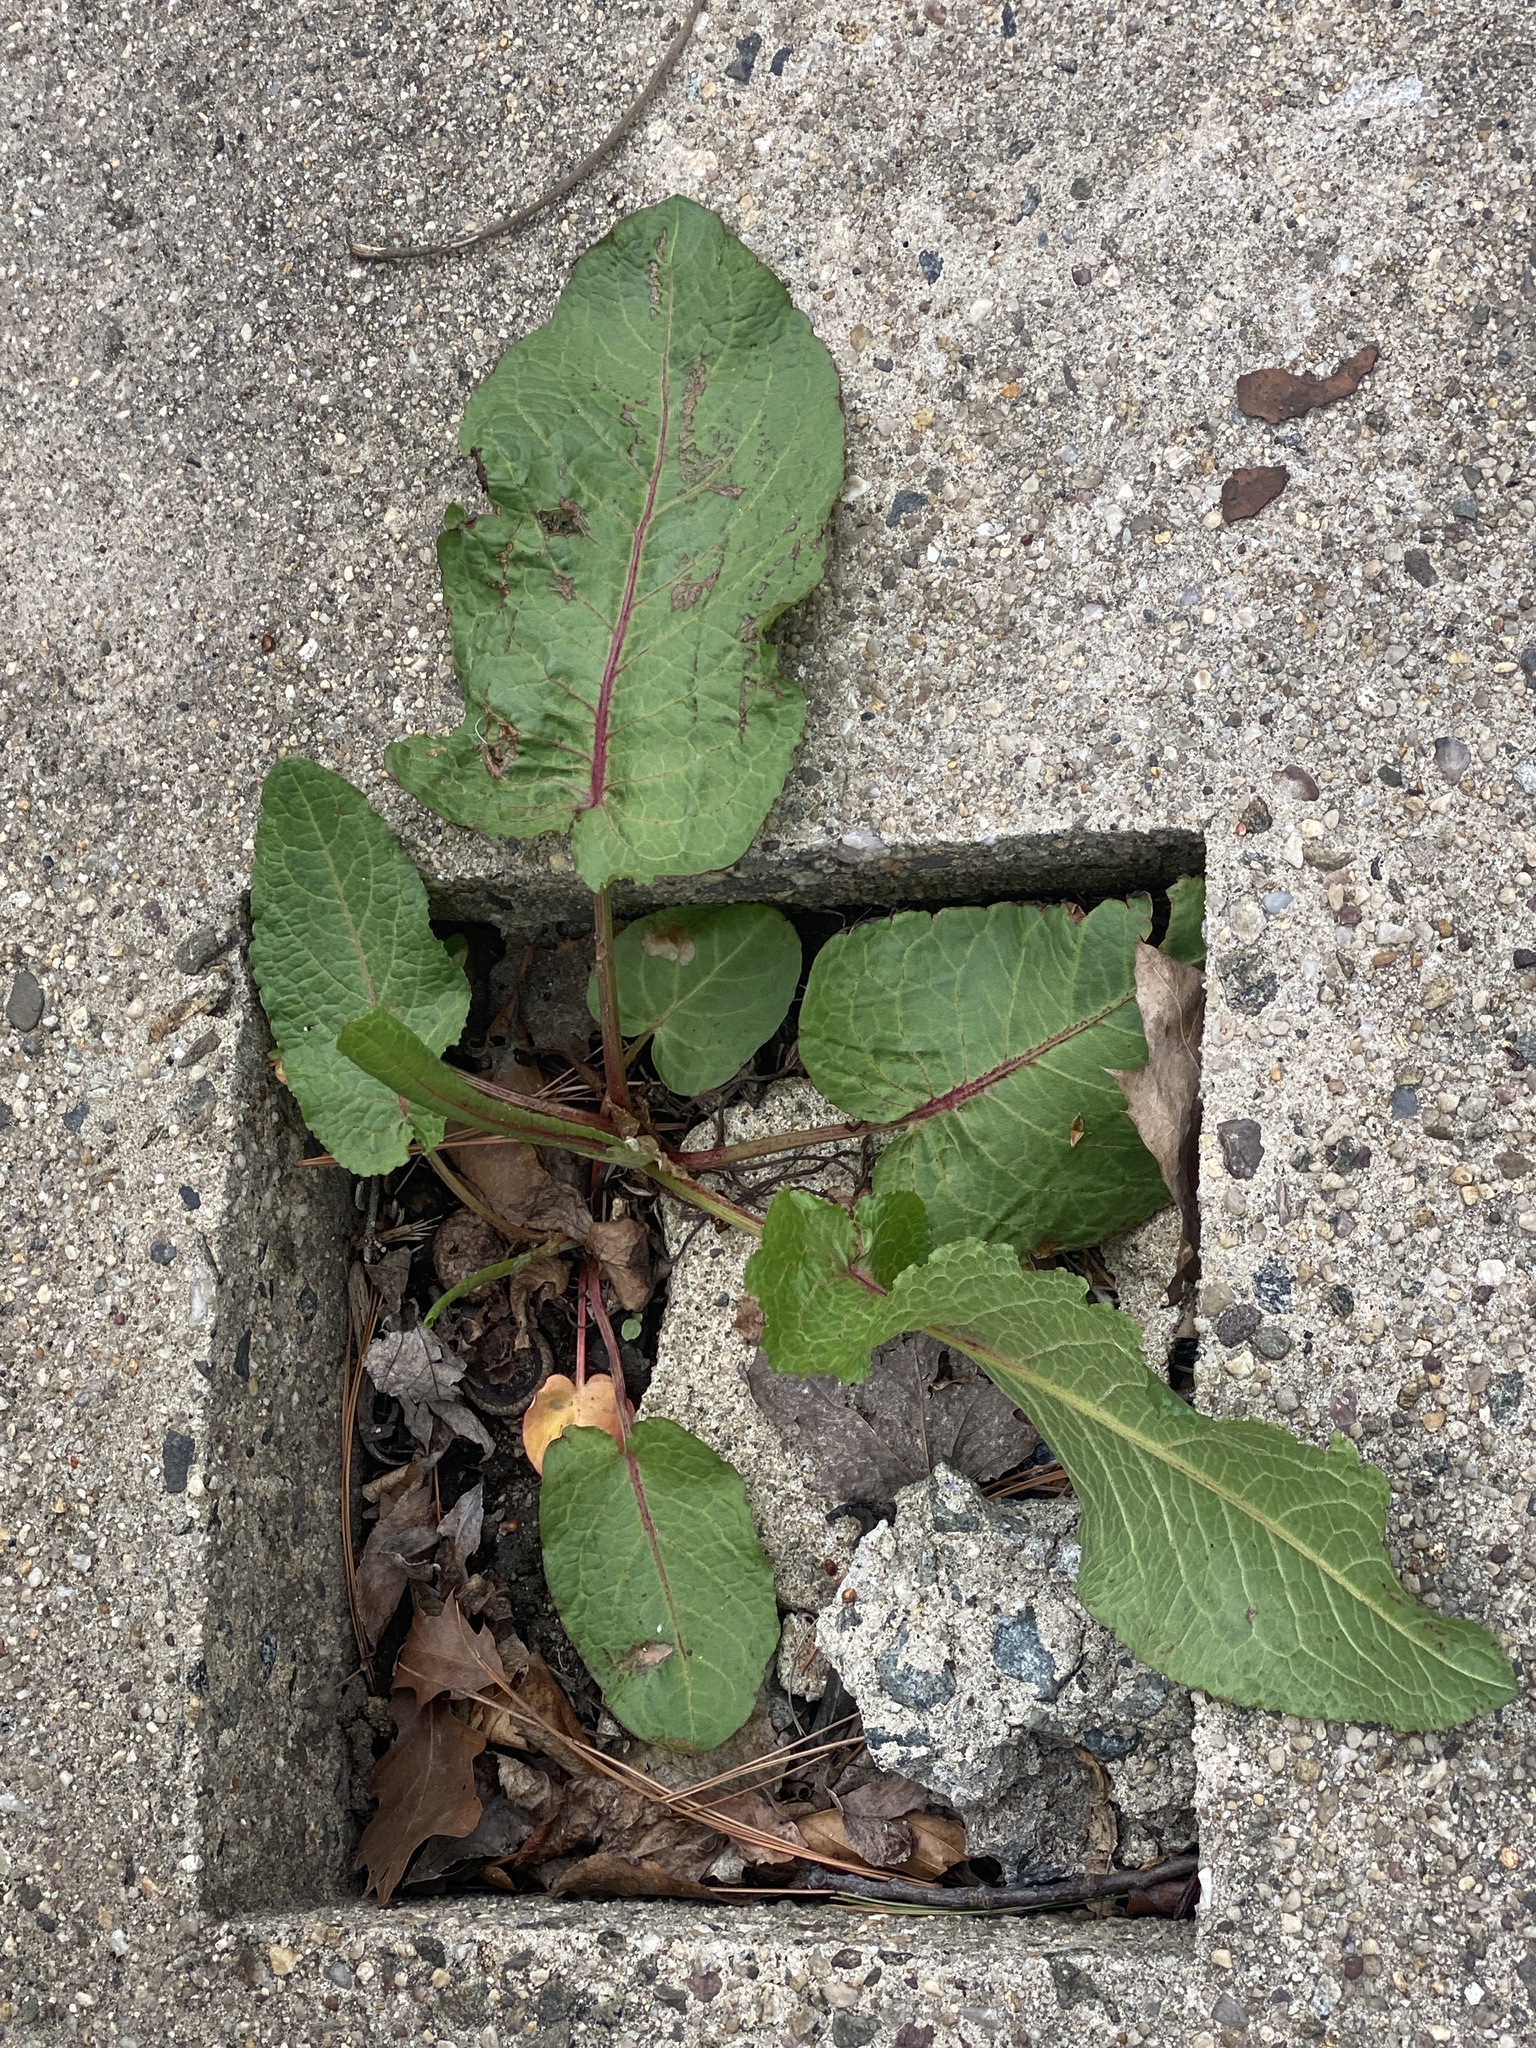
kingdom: Plantae
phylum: Tracheophyta
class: Magnoliopsida
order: Caryophyllales
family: Polygonaceae
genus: Rumex
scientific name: Rumex obtusifolius
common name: Bitter dock
